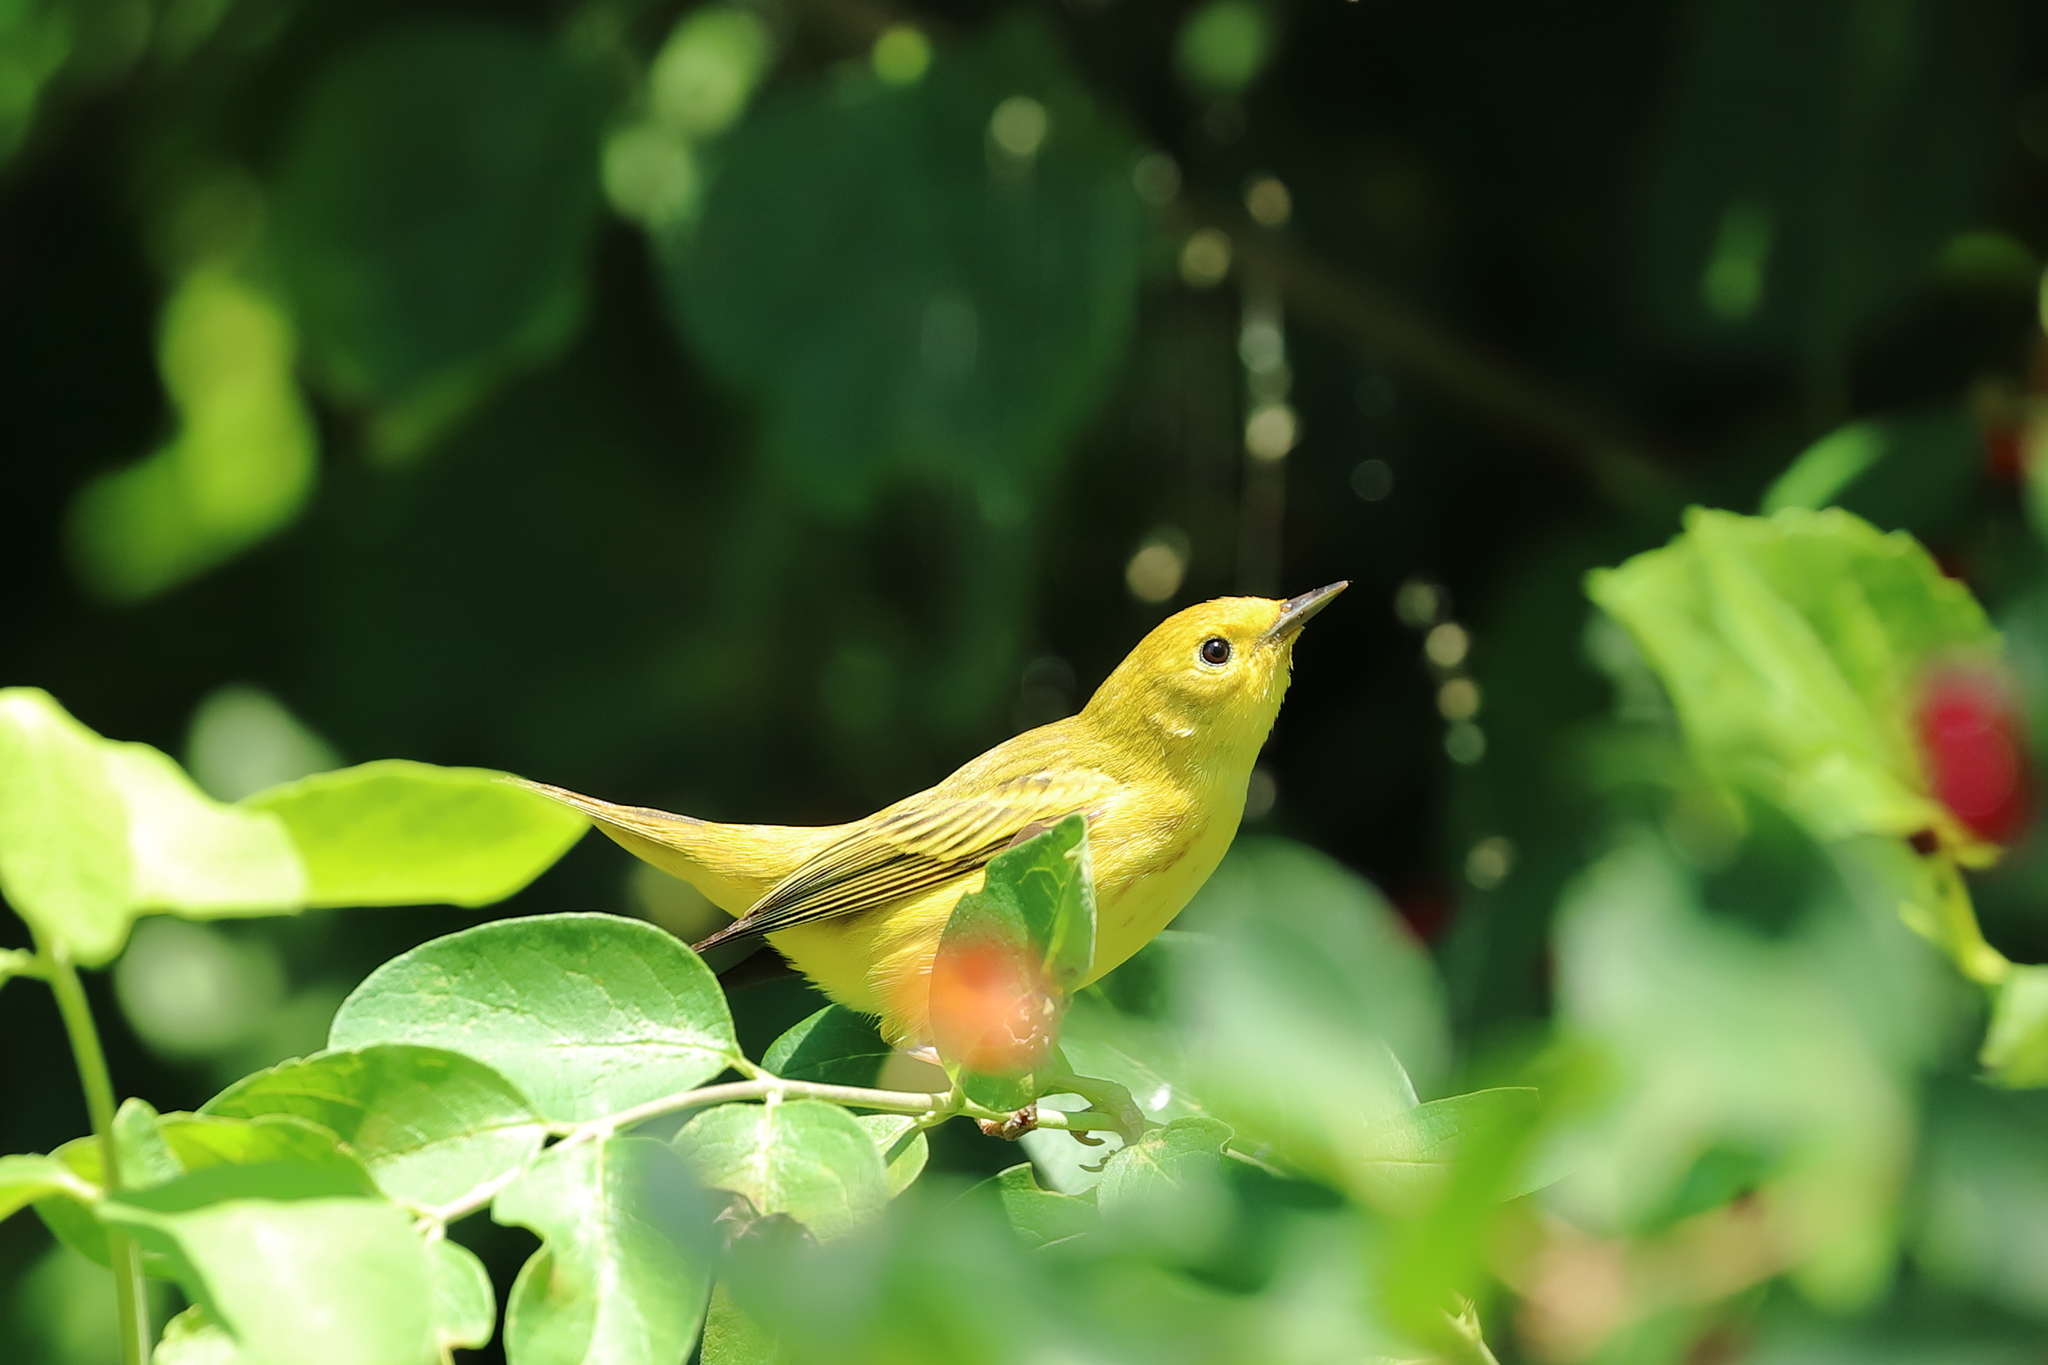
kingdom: Animalia
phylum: Chordata
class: Aves
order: Passeriformes
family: Parulidae
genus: Setophaga
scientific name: Setophaga petechia
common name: Yellow warbler
